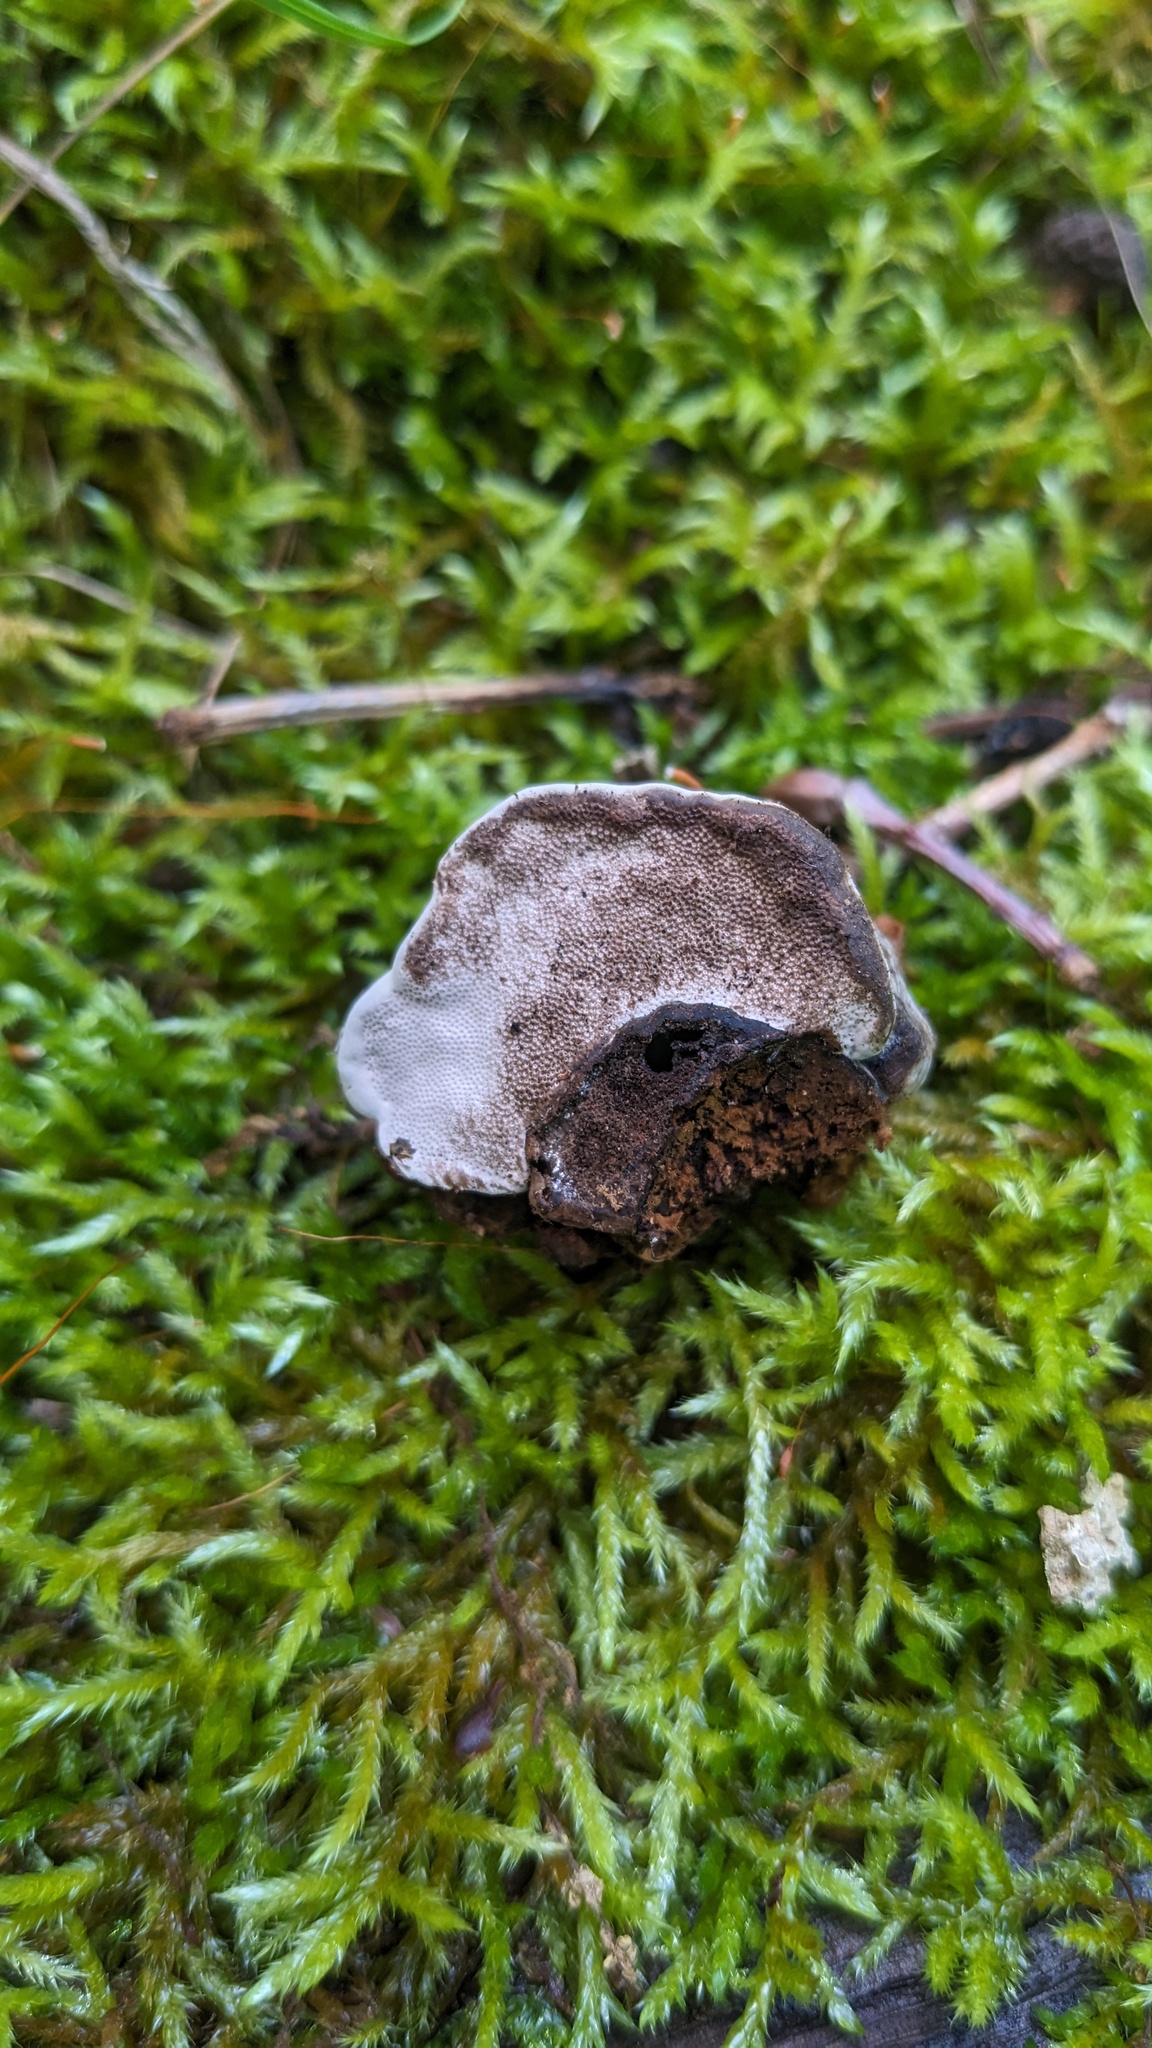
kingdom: Fungi
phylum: Basidiomycota
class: Agaricomycetes
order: Polyporales
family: Polyporaceae
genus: Fomes
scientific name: Fomes fomentarius
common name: Hoof fungus
